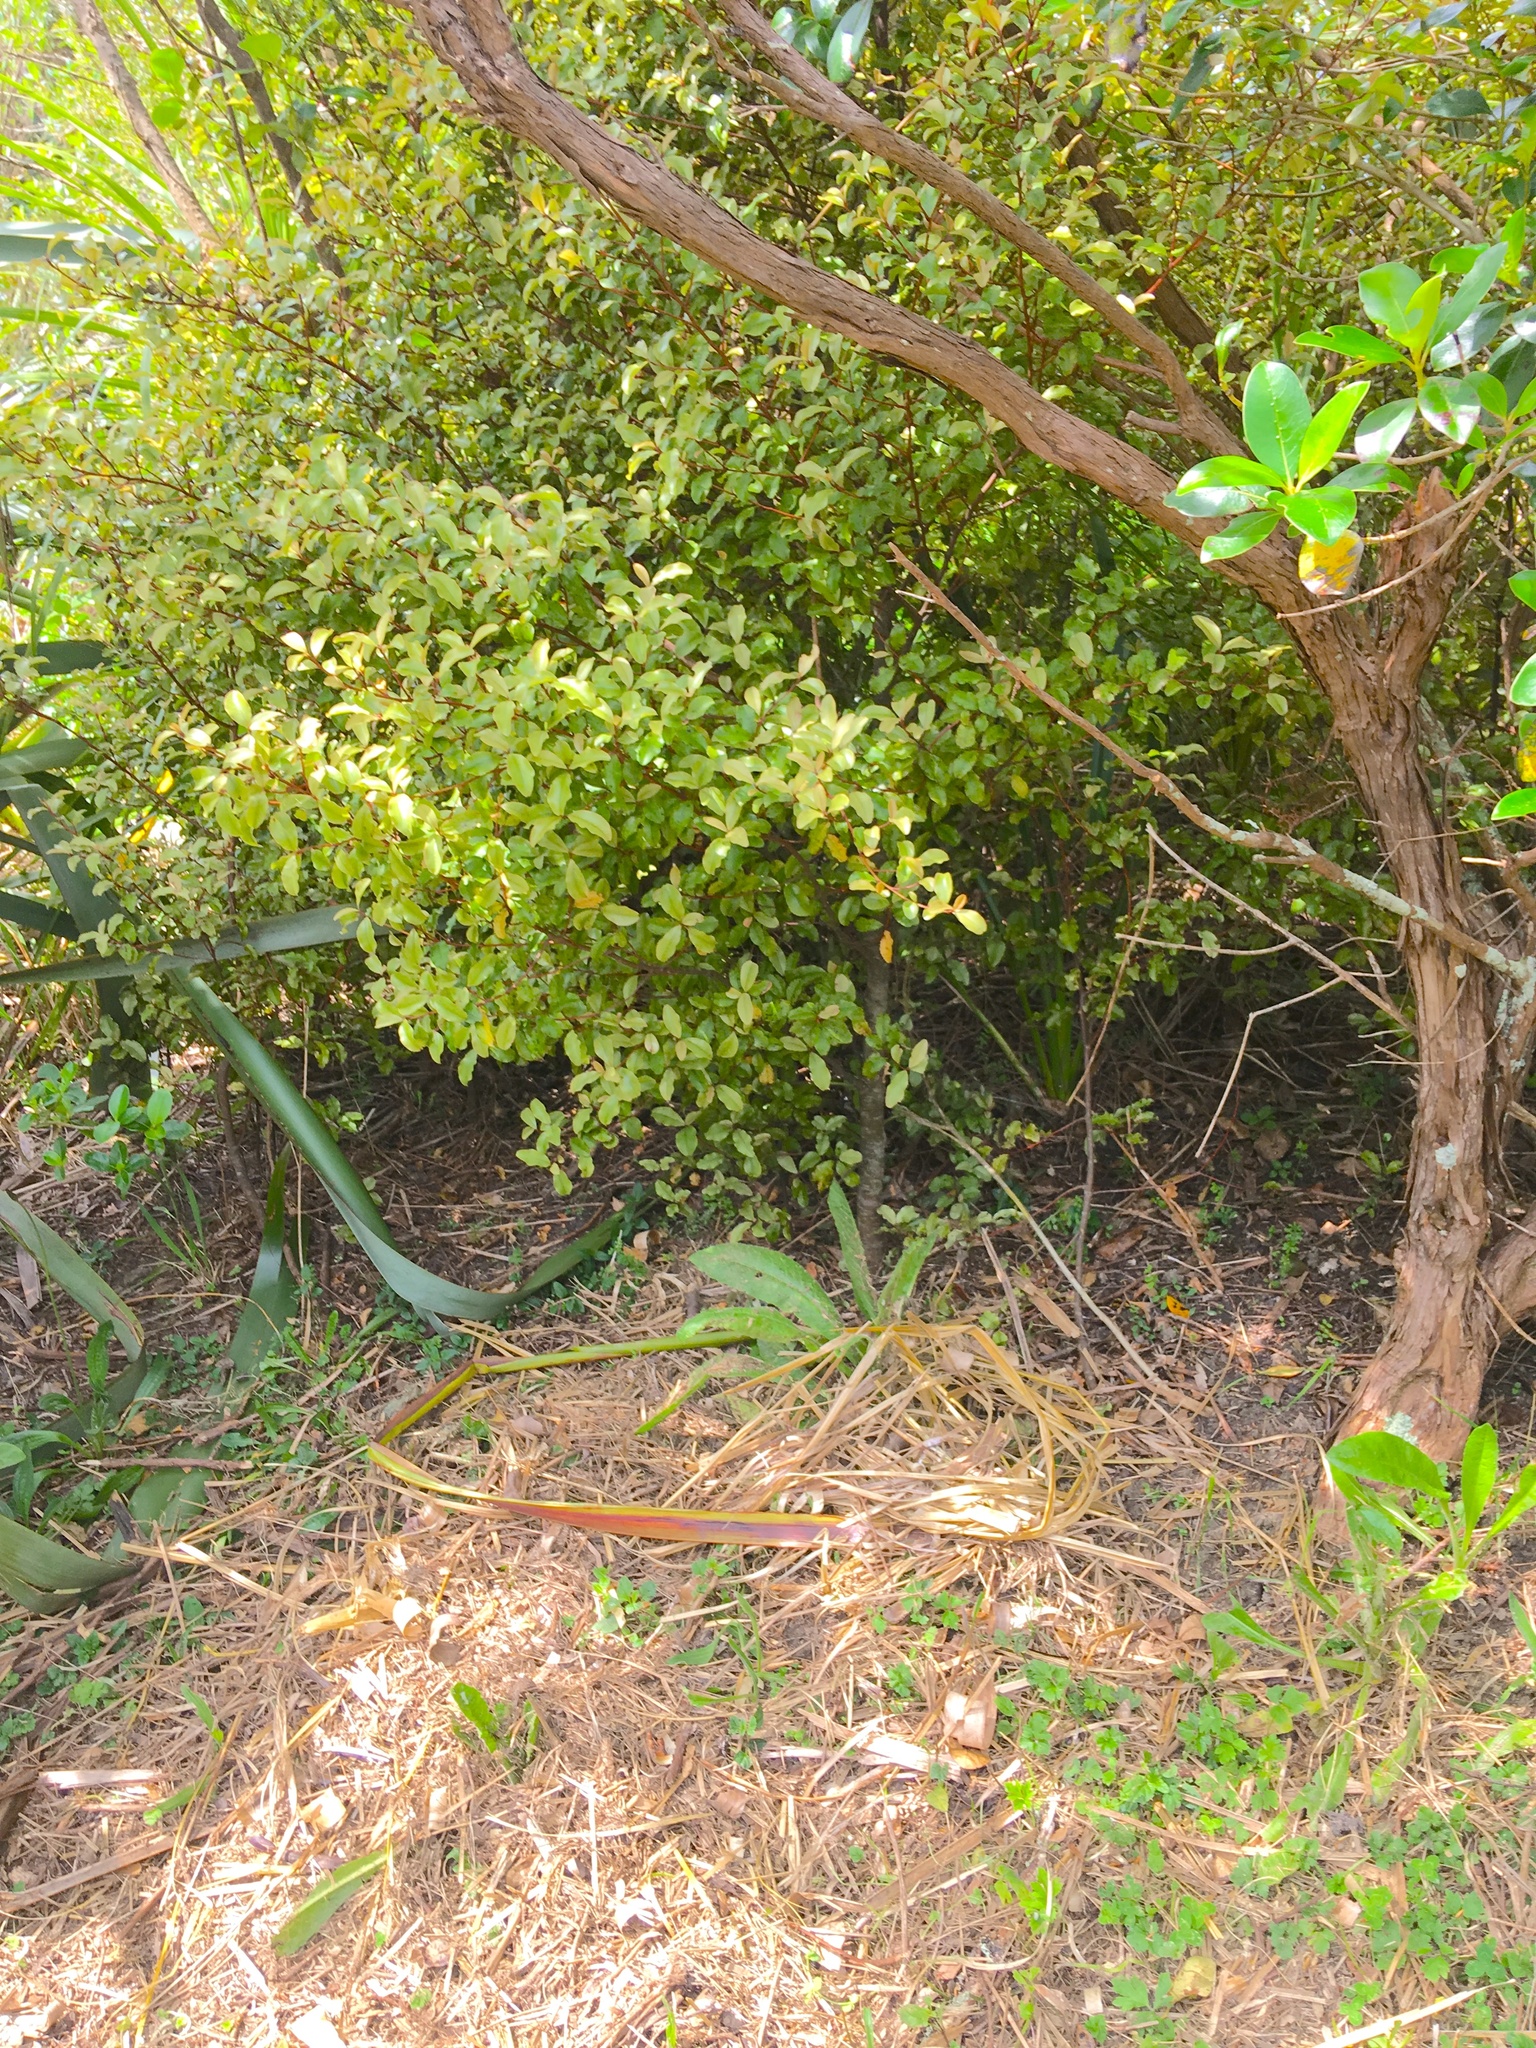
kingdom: Plantae
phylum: Tracheophyta
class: Magnoliopsida
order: Asterales
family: Asteraceae
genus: Helminthotheca
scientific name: Helminthotheca echioides
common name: Ox-tongue
